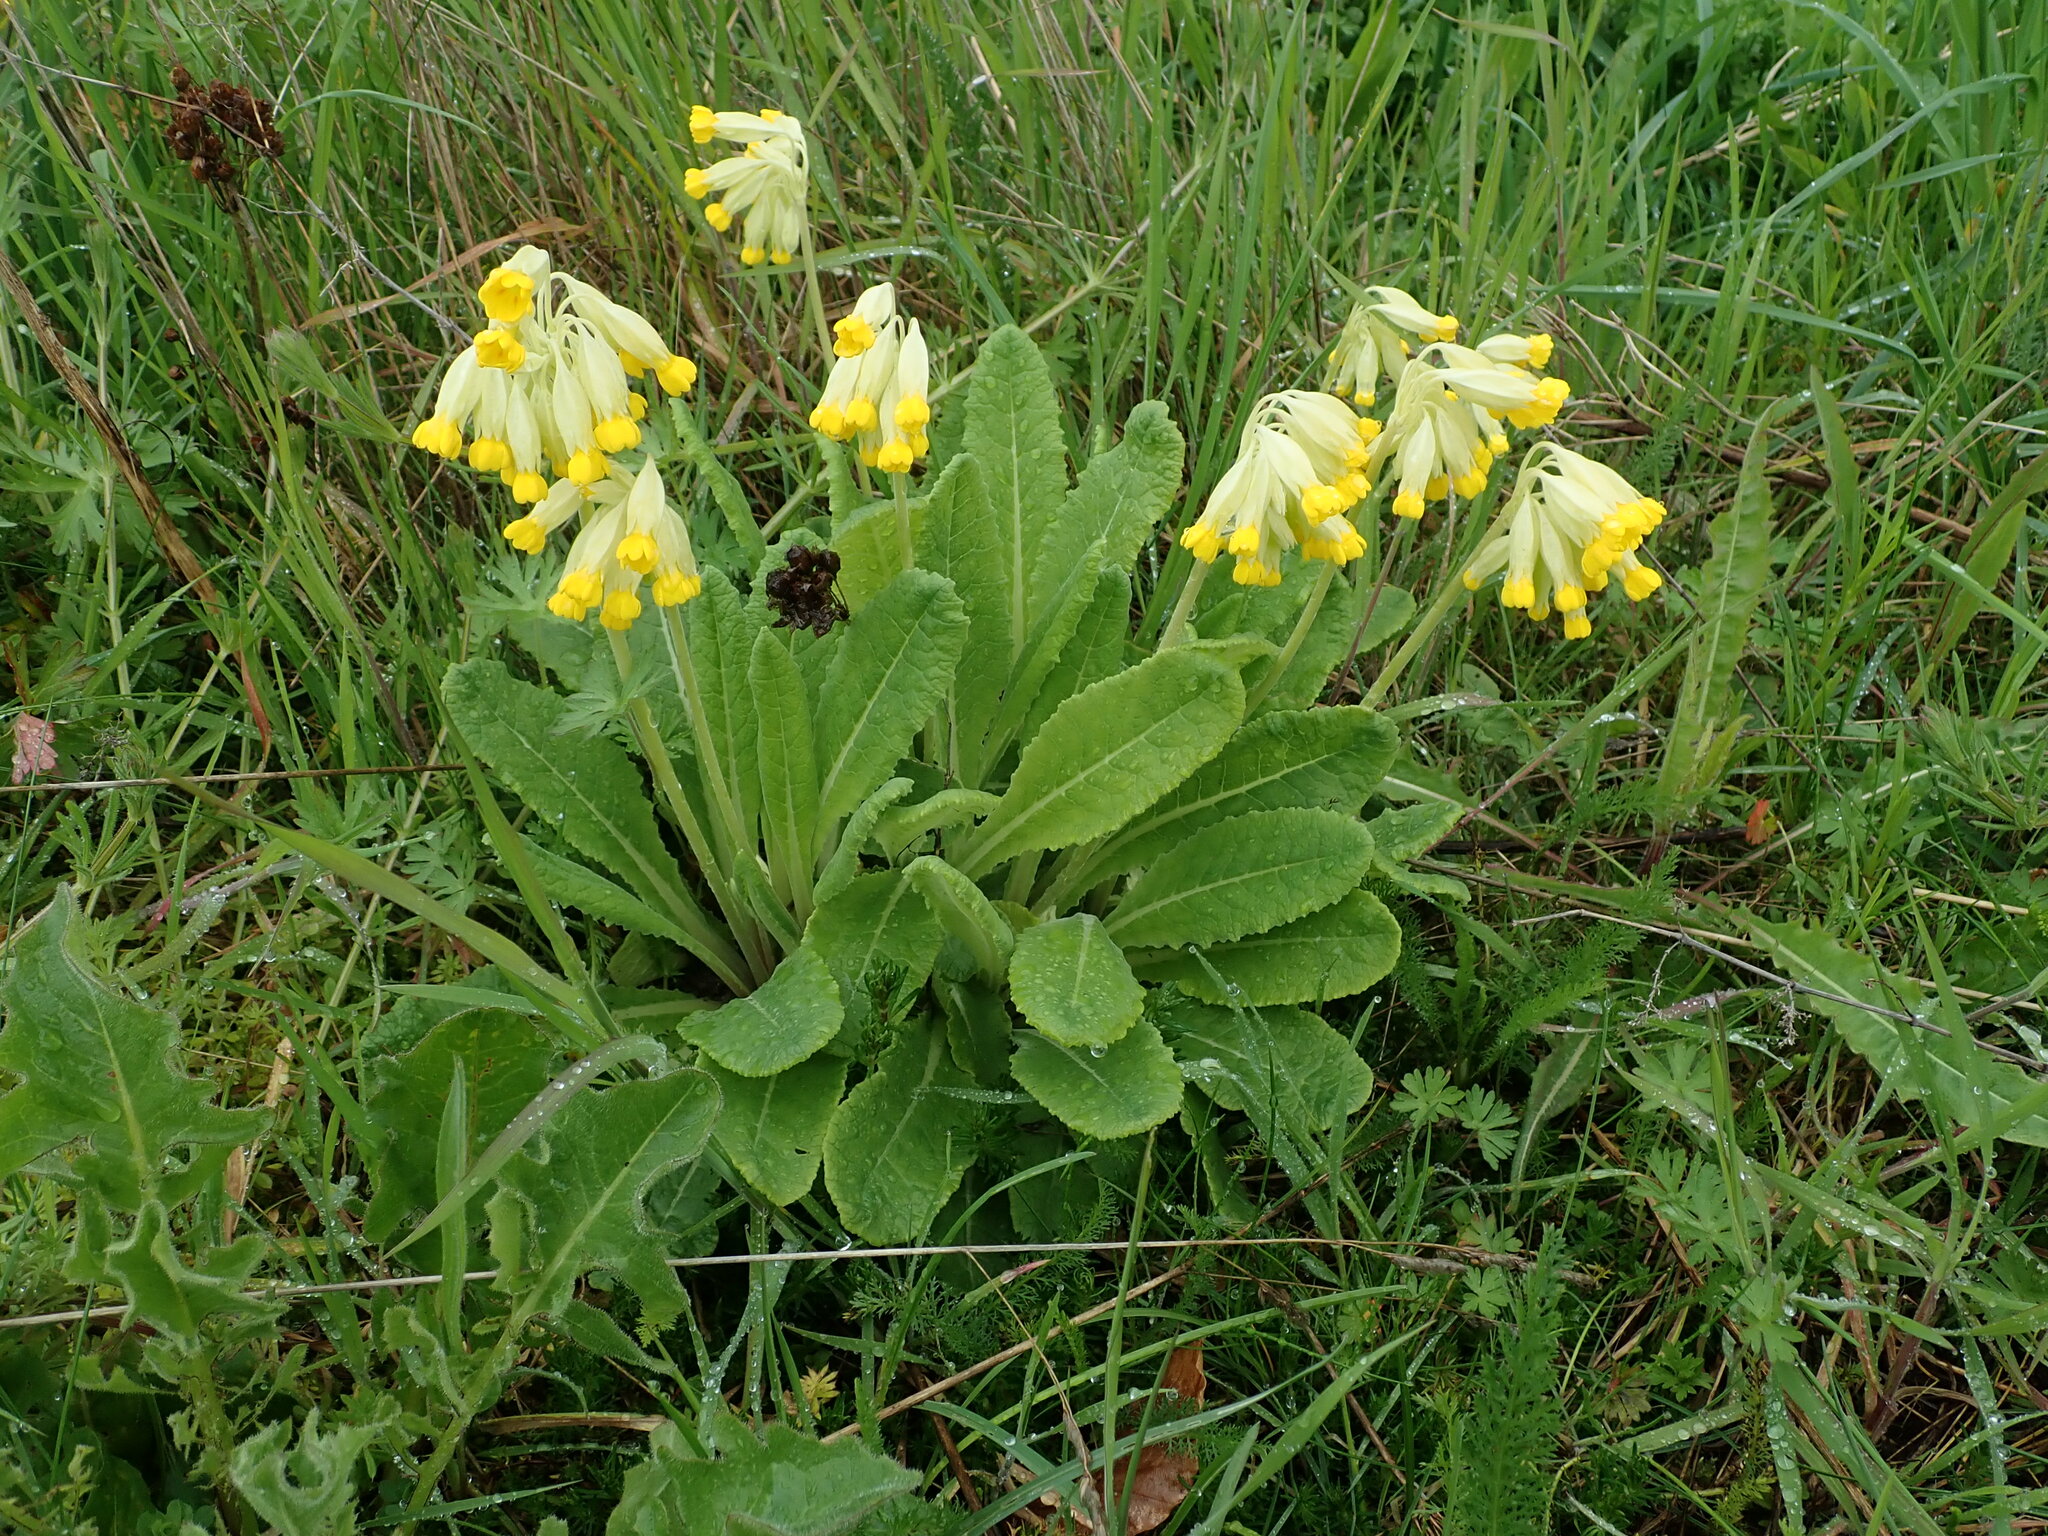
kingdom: Plantae
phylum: Tracheophyta
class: Magnoliopsida
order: Ericales
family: Primulaceae
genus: Primula
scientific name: Primula veris
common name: Cowslip
